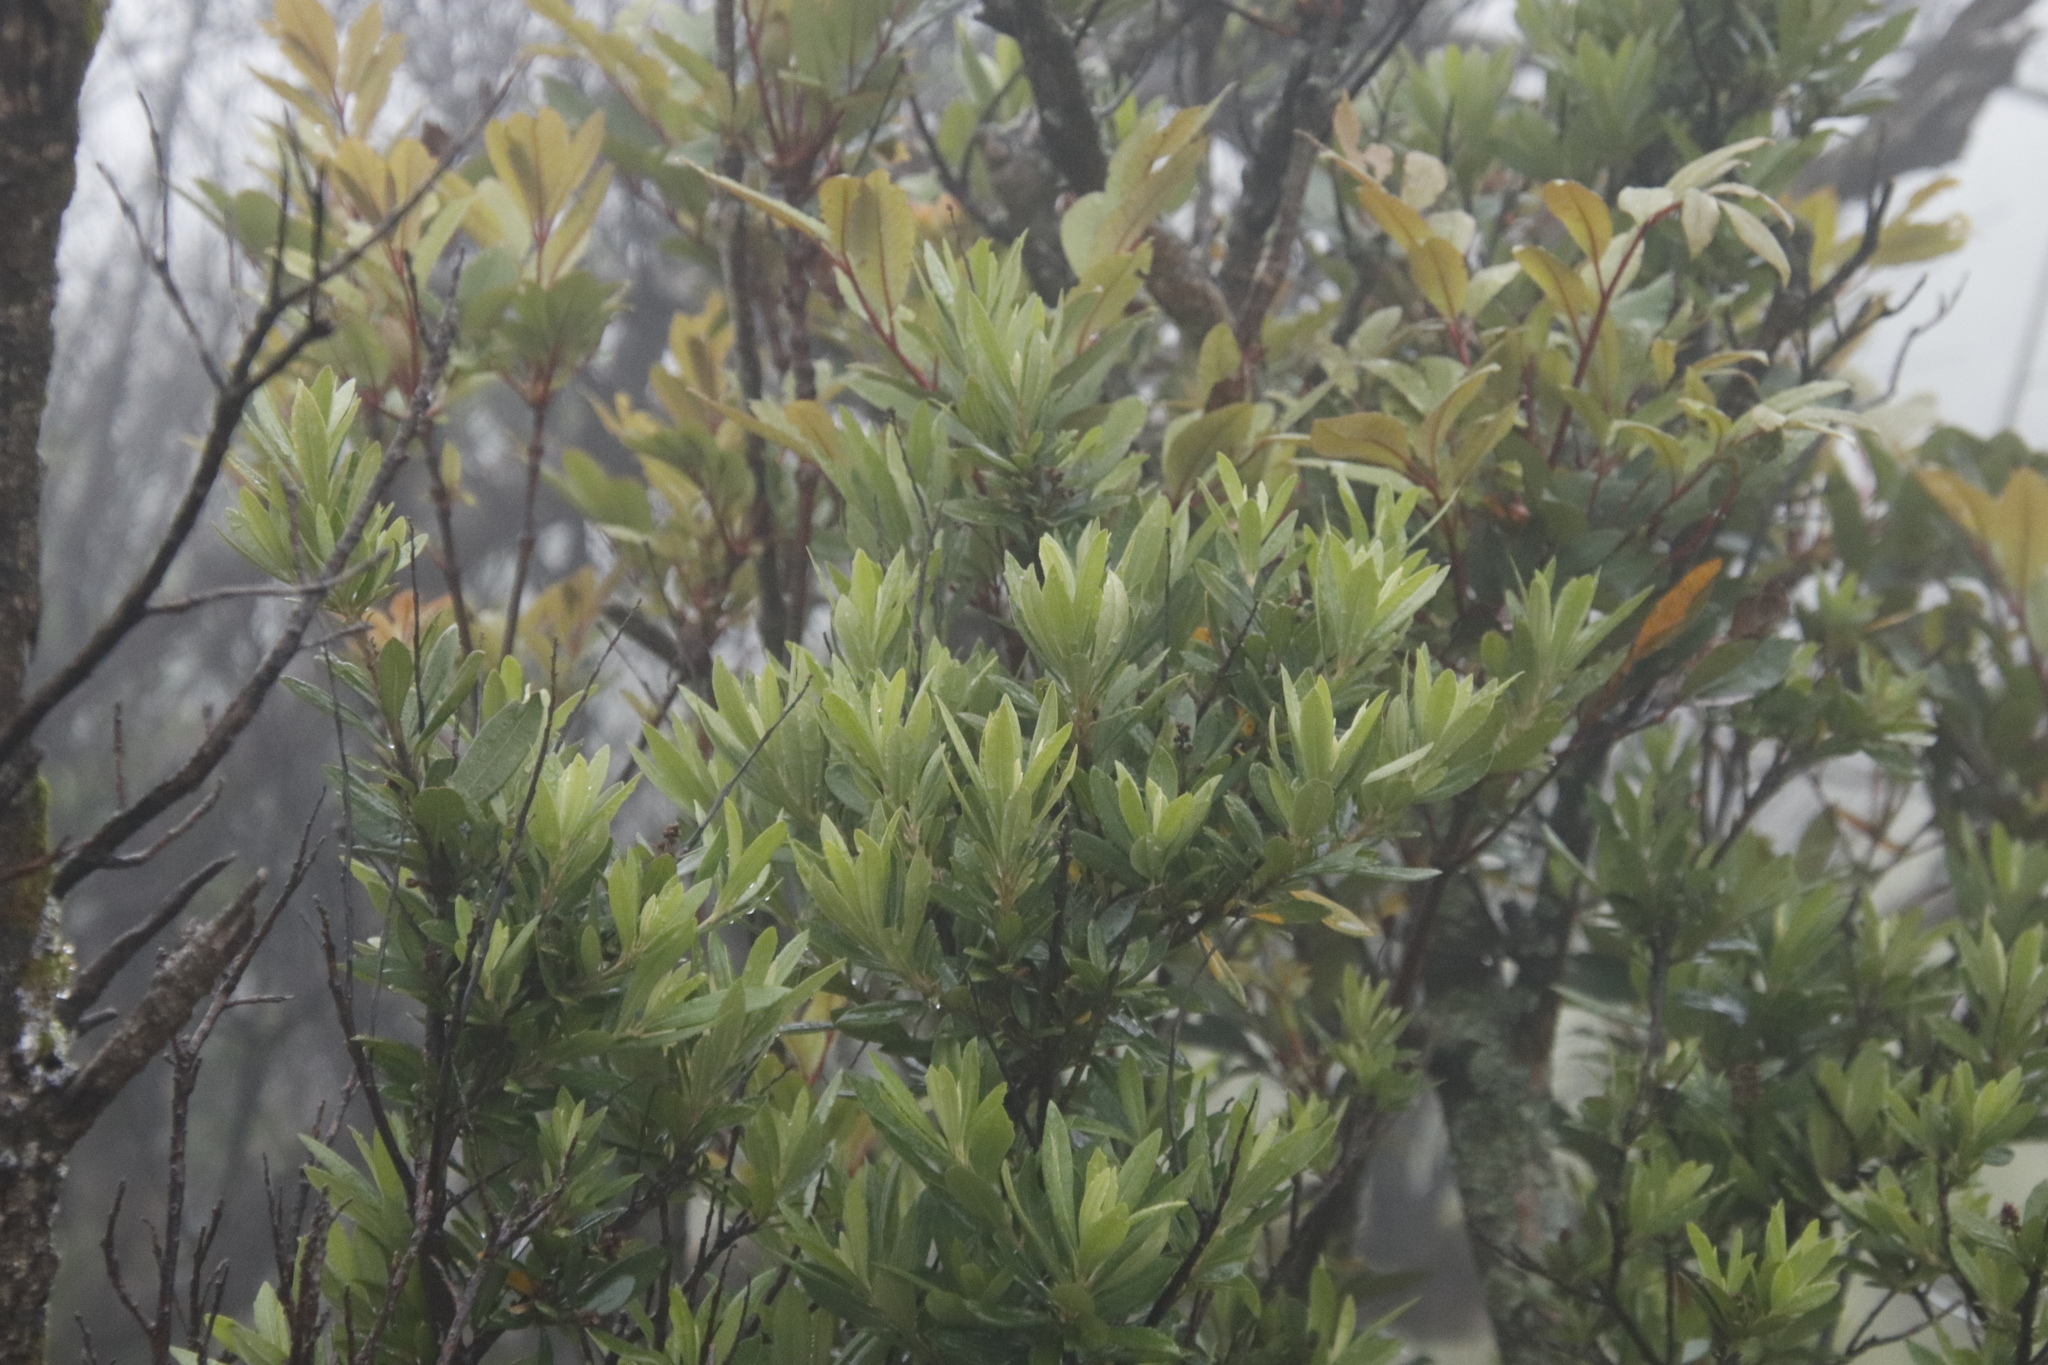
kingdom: Plantae
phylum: Tracheophyta
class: Magnoliopsida
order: Asterales
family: Asteraceae
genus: Brachylaena
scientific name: Brachylaena neriifolia
